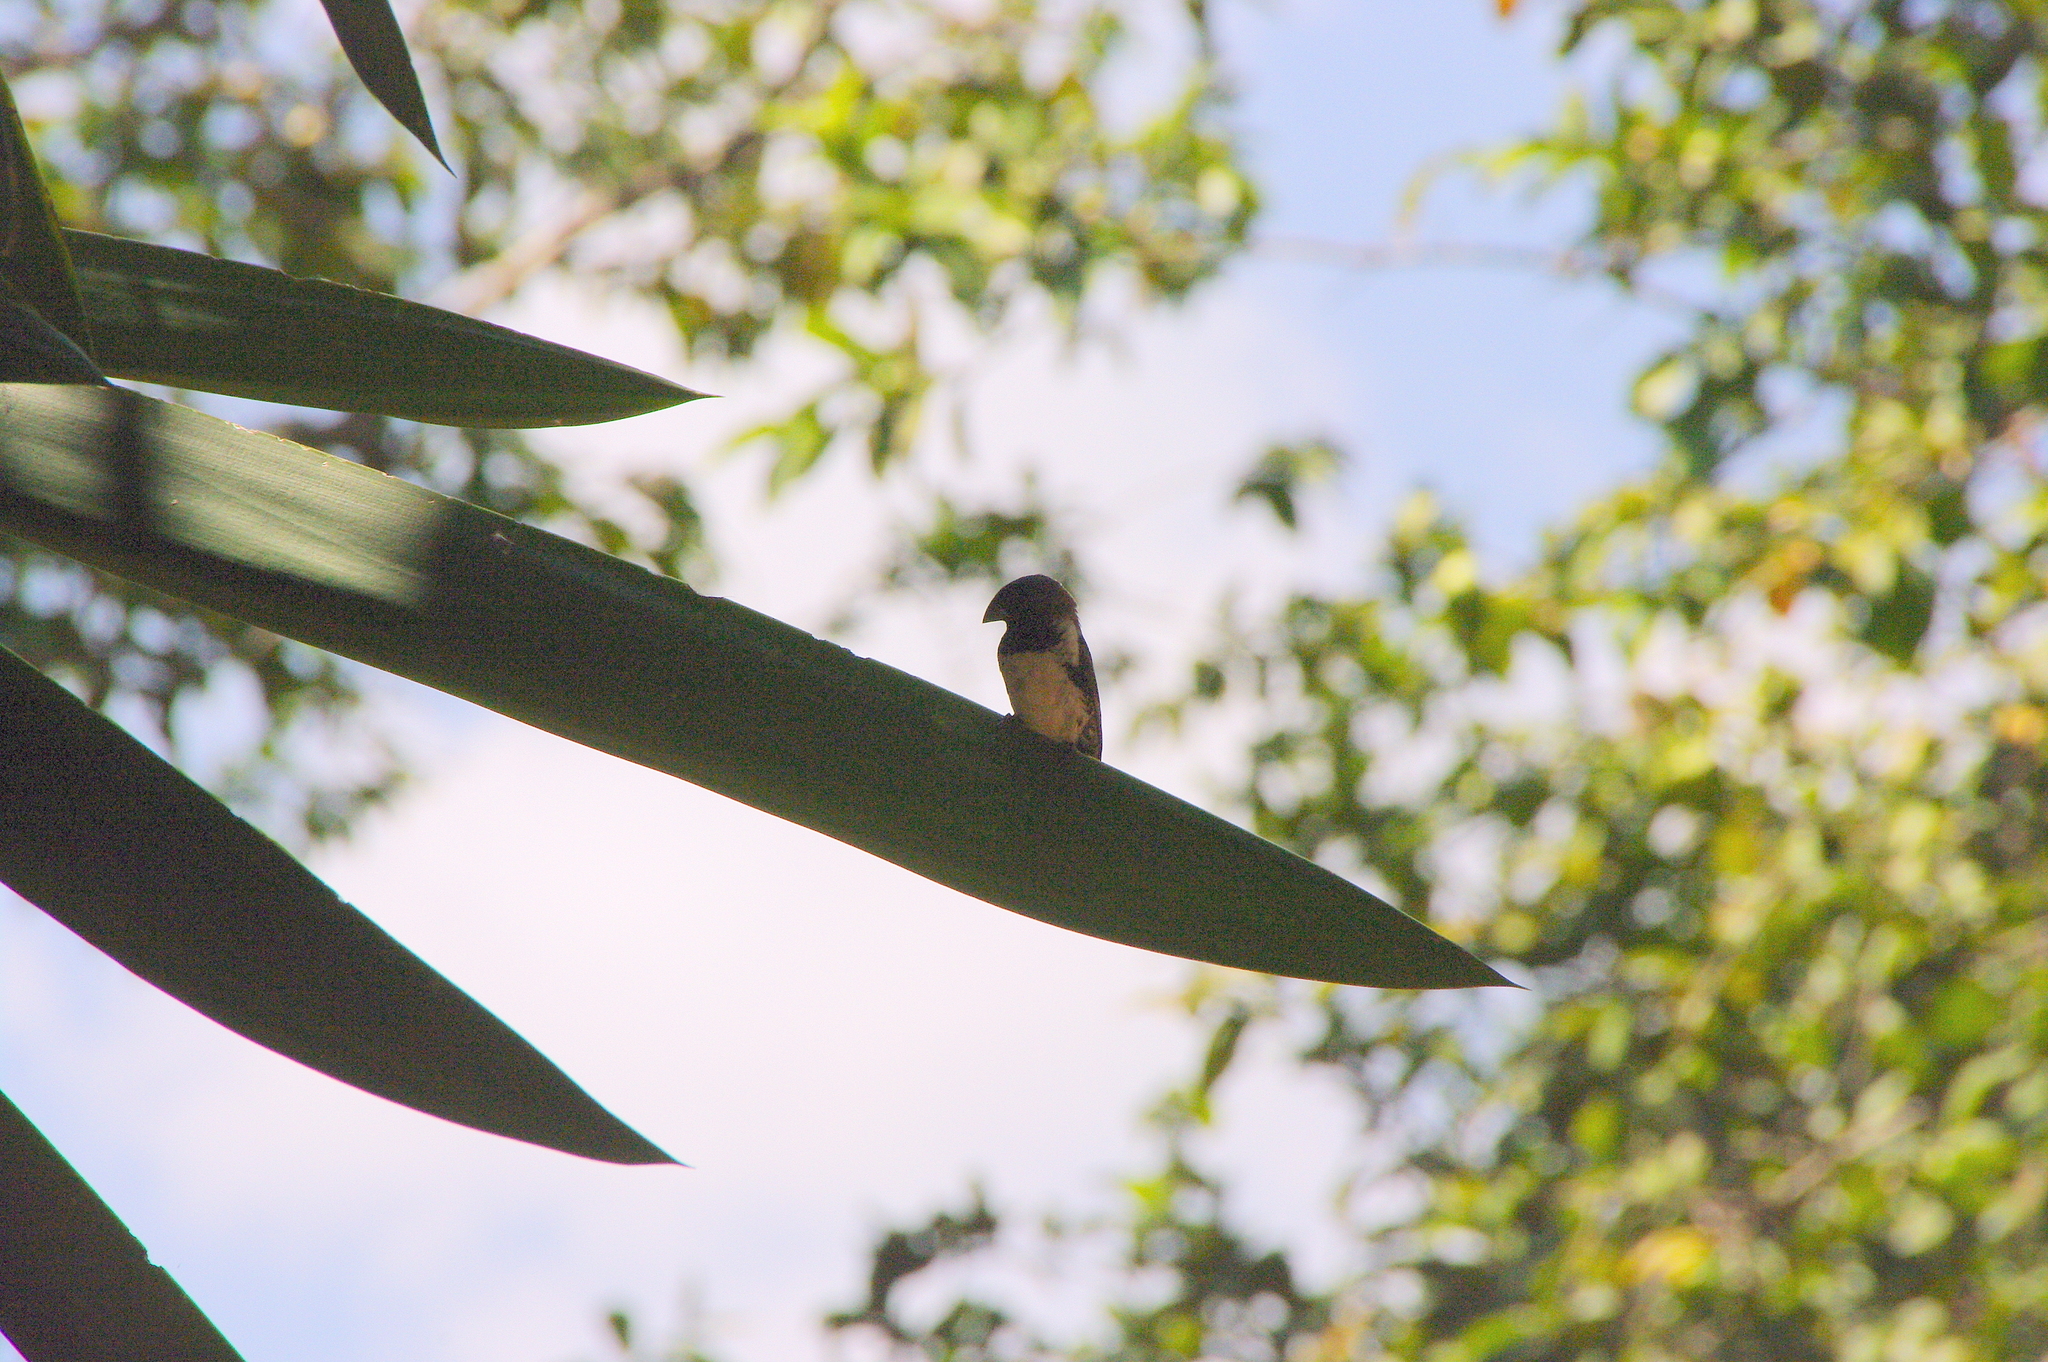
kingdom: Animalia
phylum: Chordata
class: Aves
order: Passeriformes
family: Estrildidae
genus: Lonchura
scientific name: Lonchura cucullata
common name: Bronze mannikin
